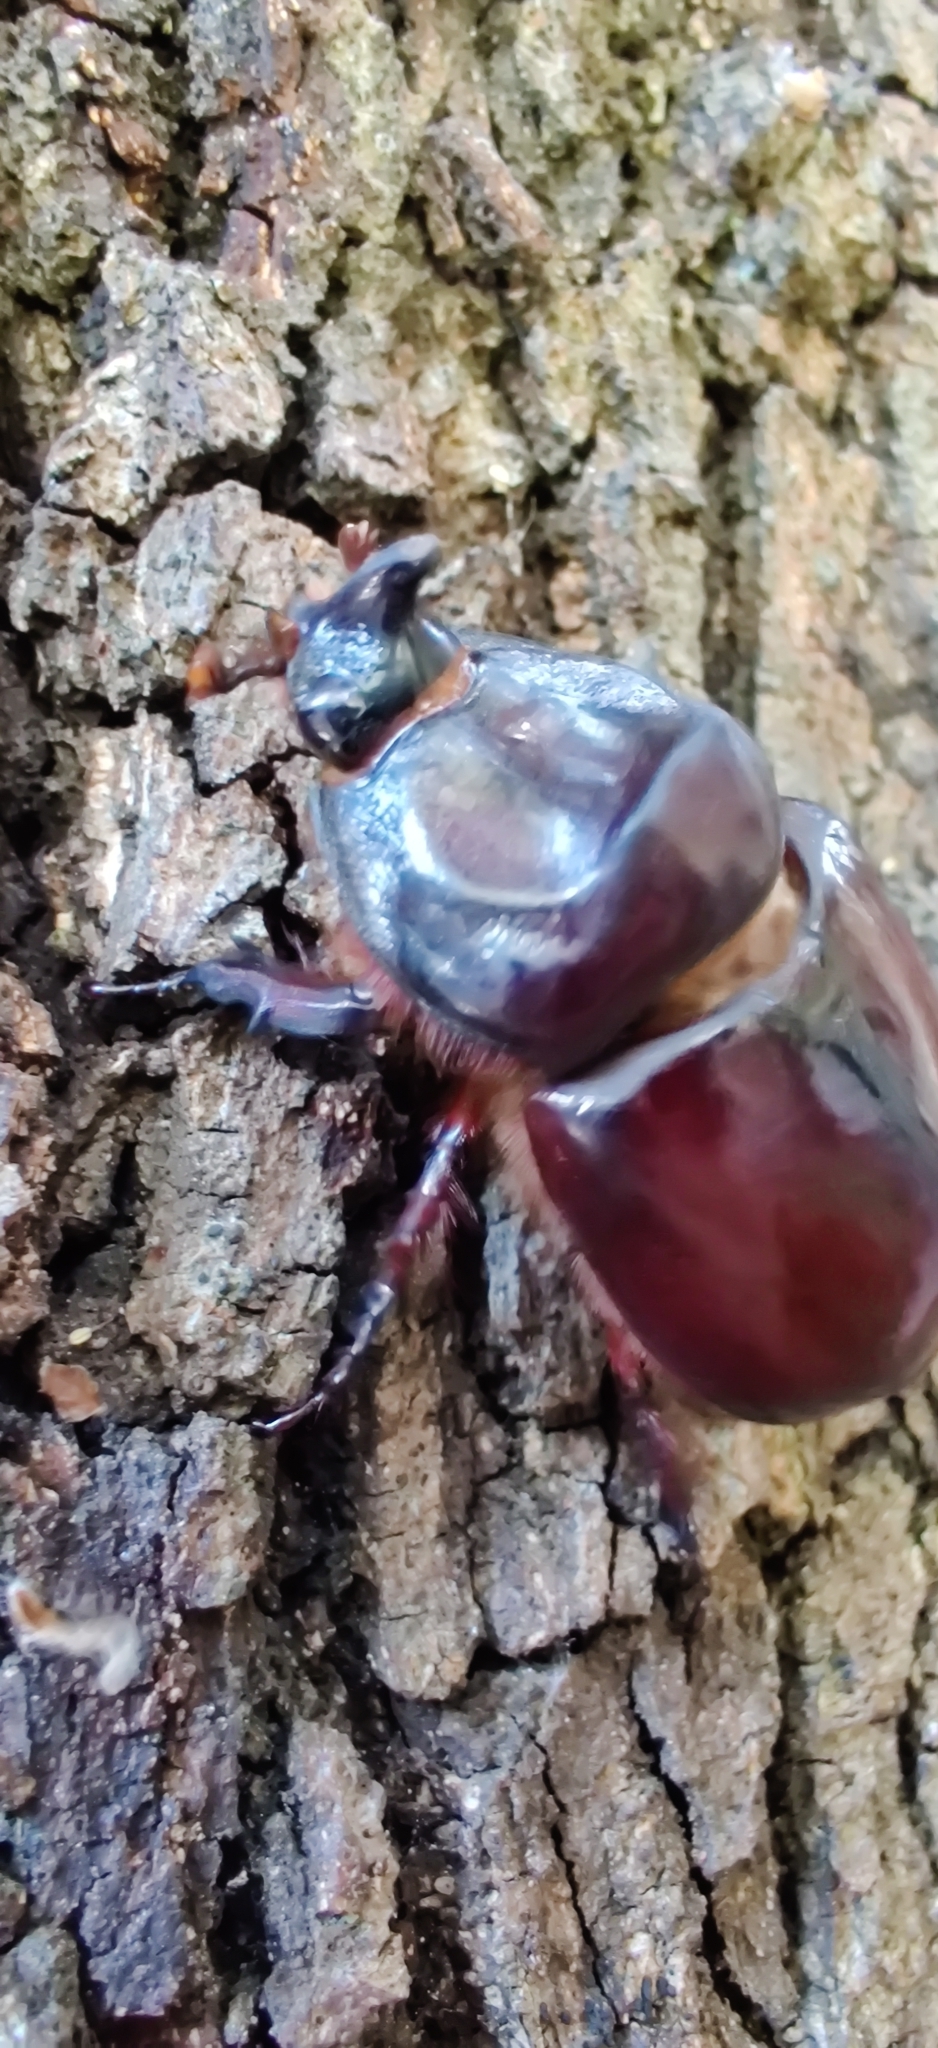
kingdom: Animalia
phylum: Arthropoda
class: Insecta
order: Coleoptera
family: Scarabaeidae
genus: Oryctes
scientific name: Oryctes nasicornis
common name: European rhinoceros beetle
